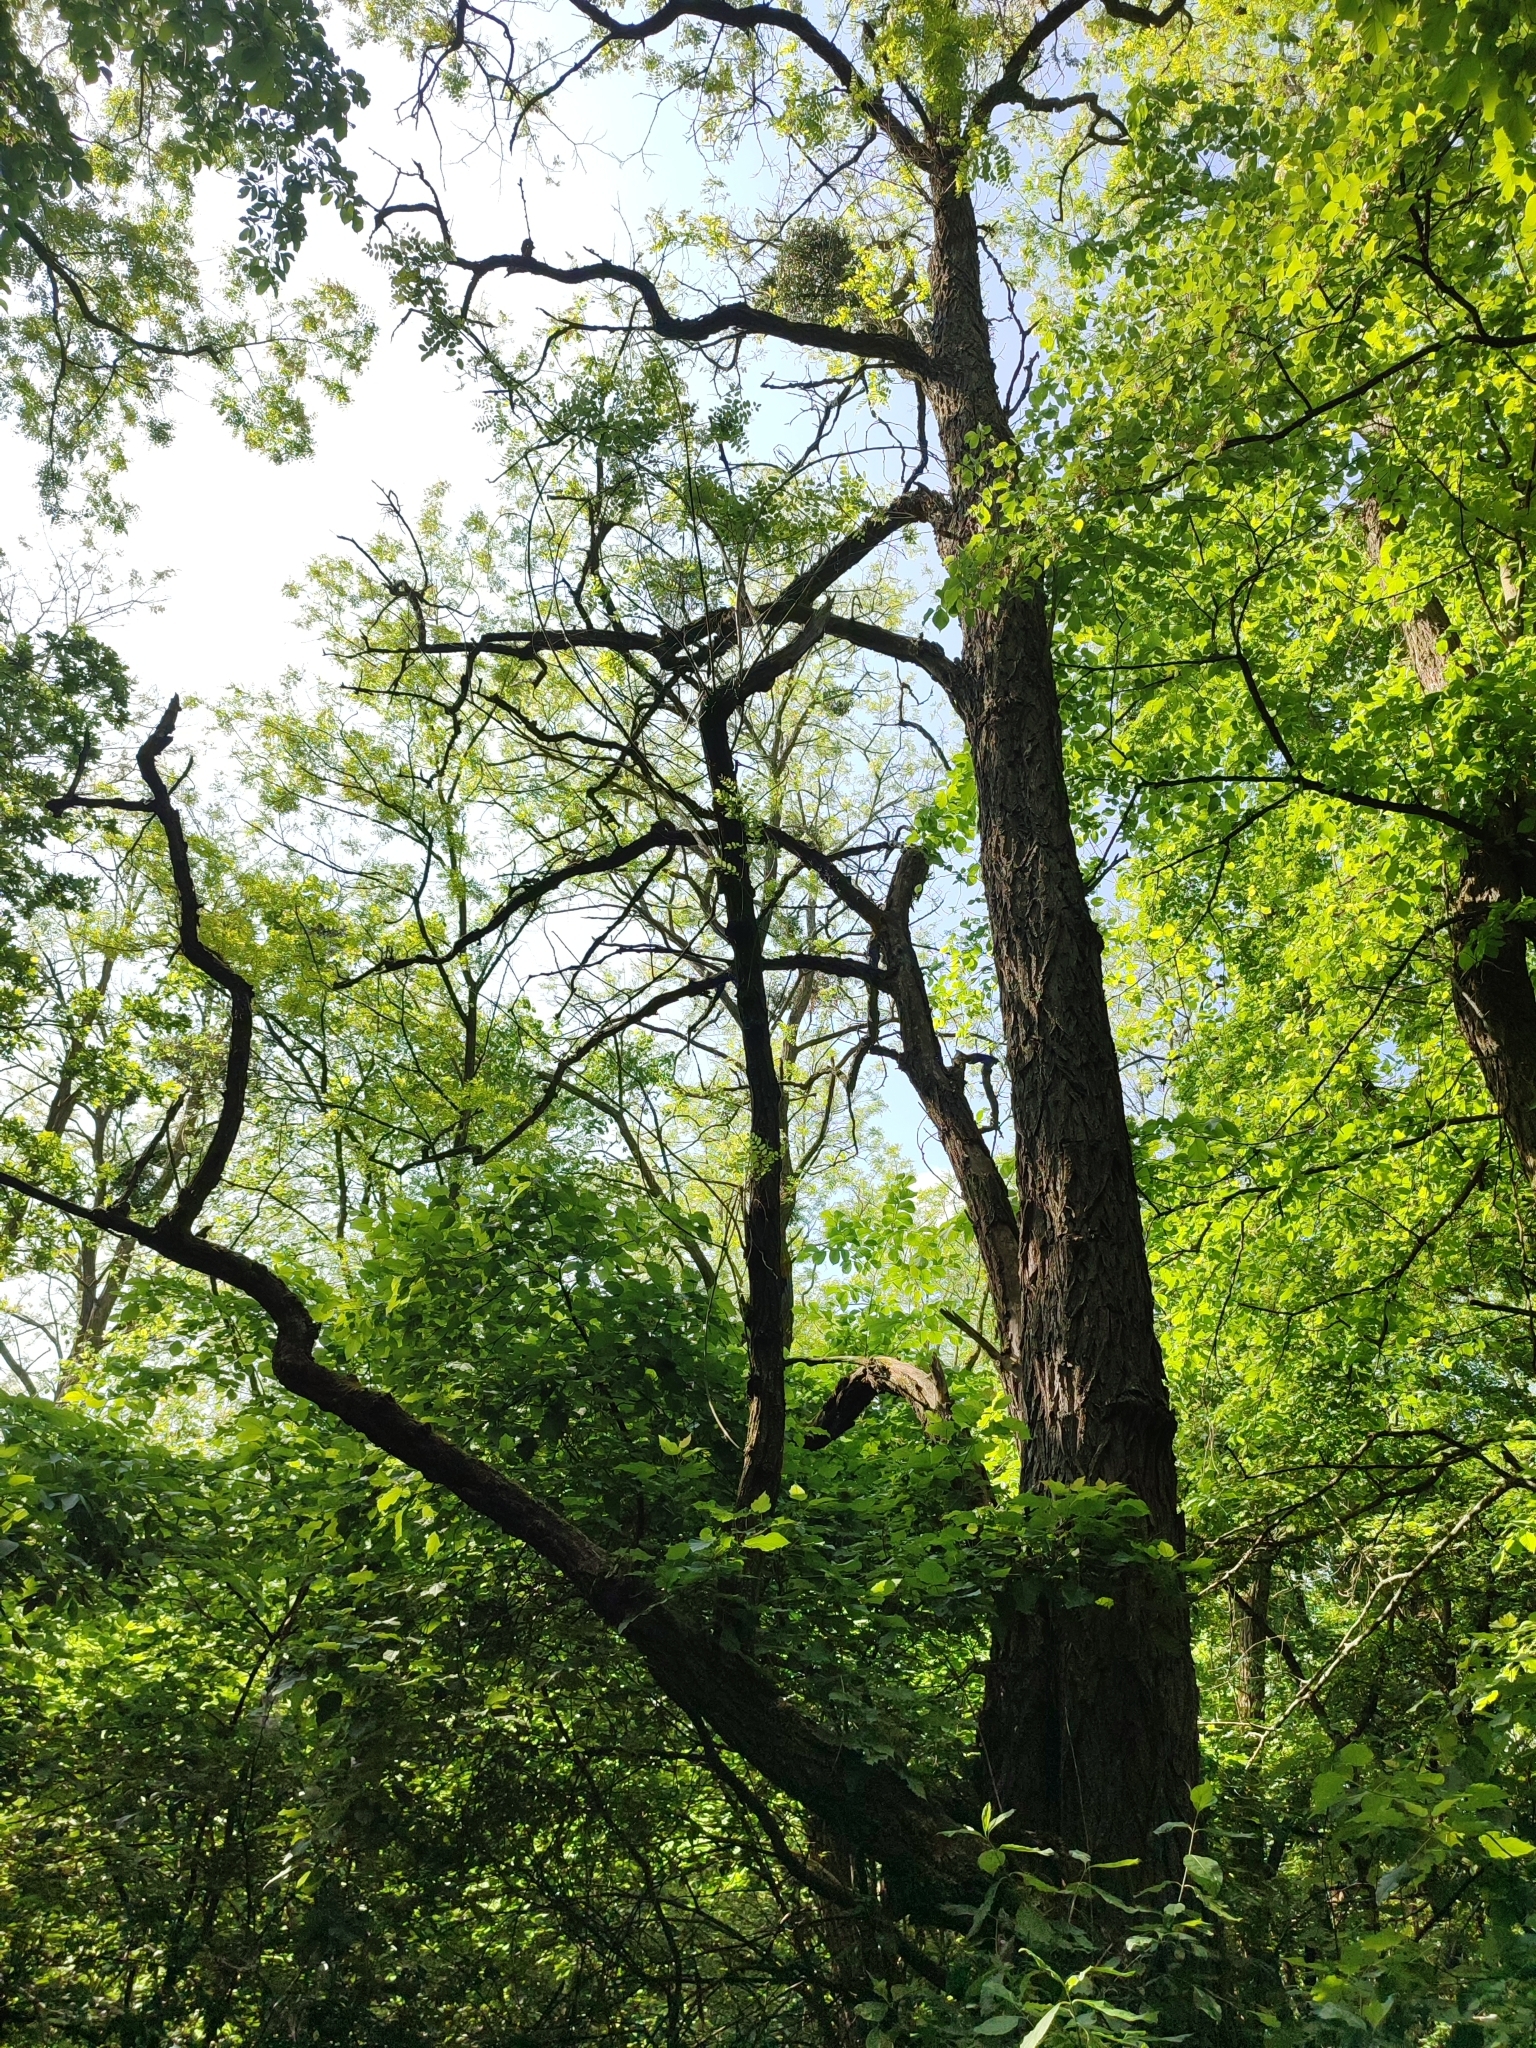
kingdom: Plantae
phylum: Tracheophyta
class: Magnoliopsida
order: Fabales
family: Fabaceae
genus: Robinia
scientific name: Robinia pseudoacacia
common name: Black locust
